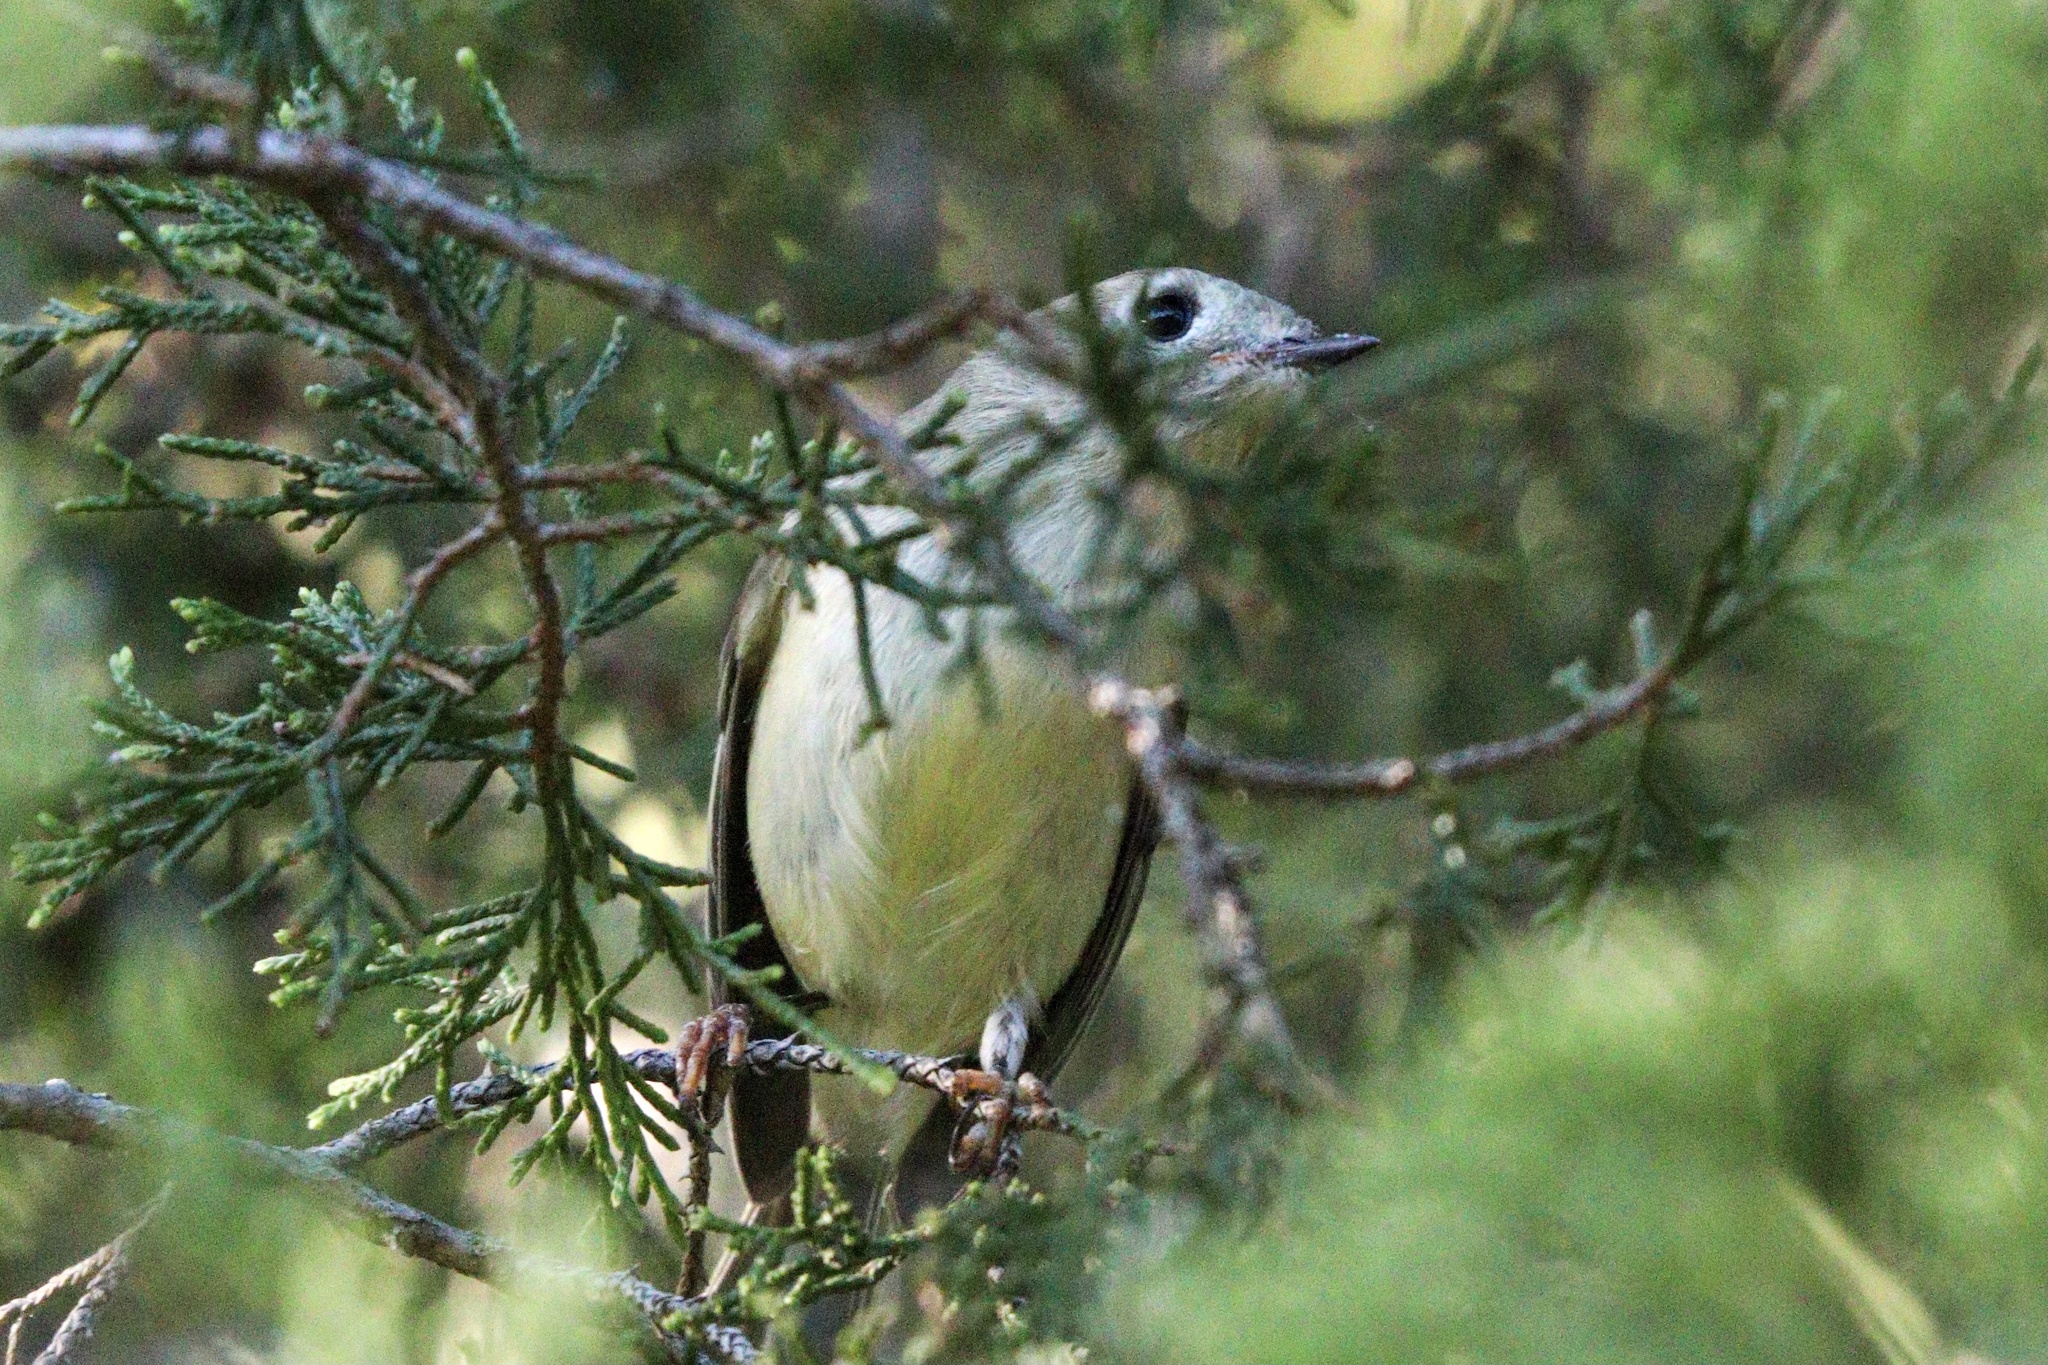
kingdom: Animalia
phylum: Chordata
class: Aves
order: Passeriformes
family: Regulidae
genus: Regulus
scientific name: Regulus calendula
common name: Ruby-crowned kinglet
